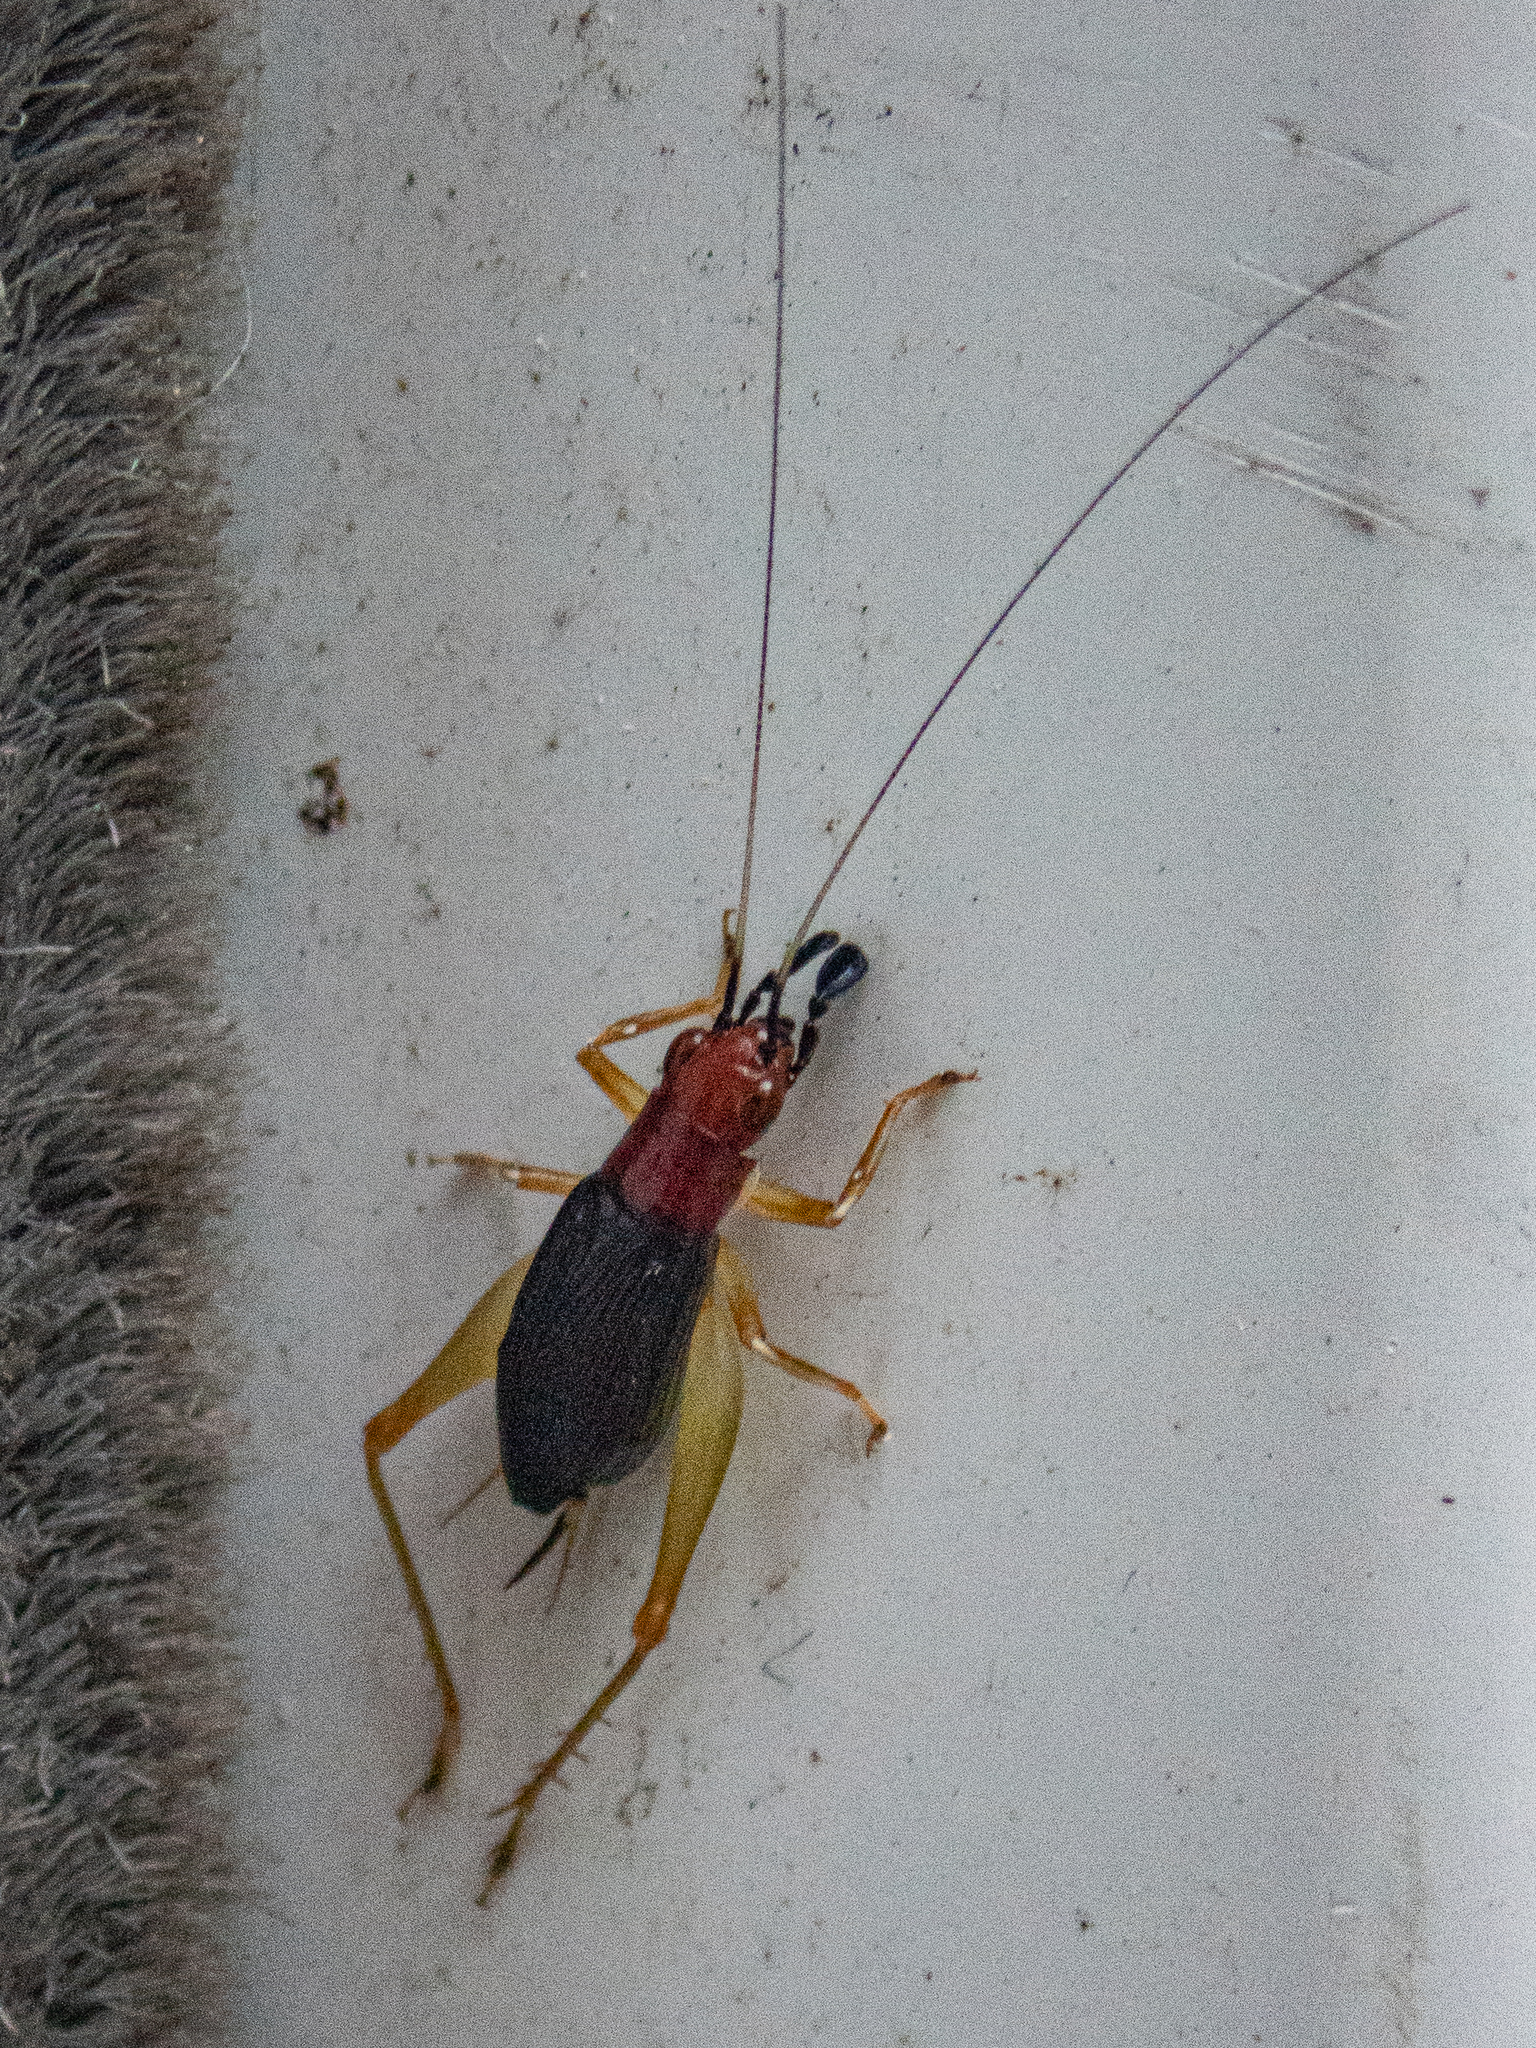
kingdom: Animalia
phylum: Arthropoda
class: Insecta
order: Orthoptera
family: Trigonidiidae
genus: Phyllopalpus
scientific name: Phyllopalpus pulchellus
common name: Handsome trig
